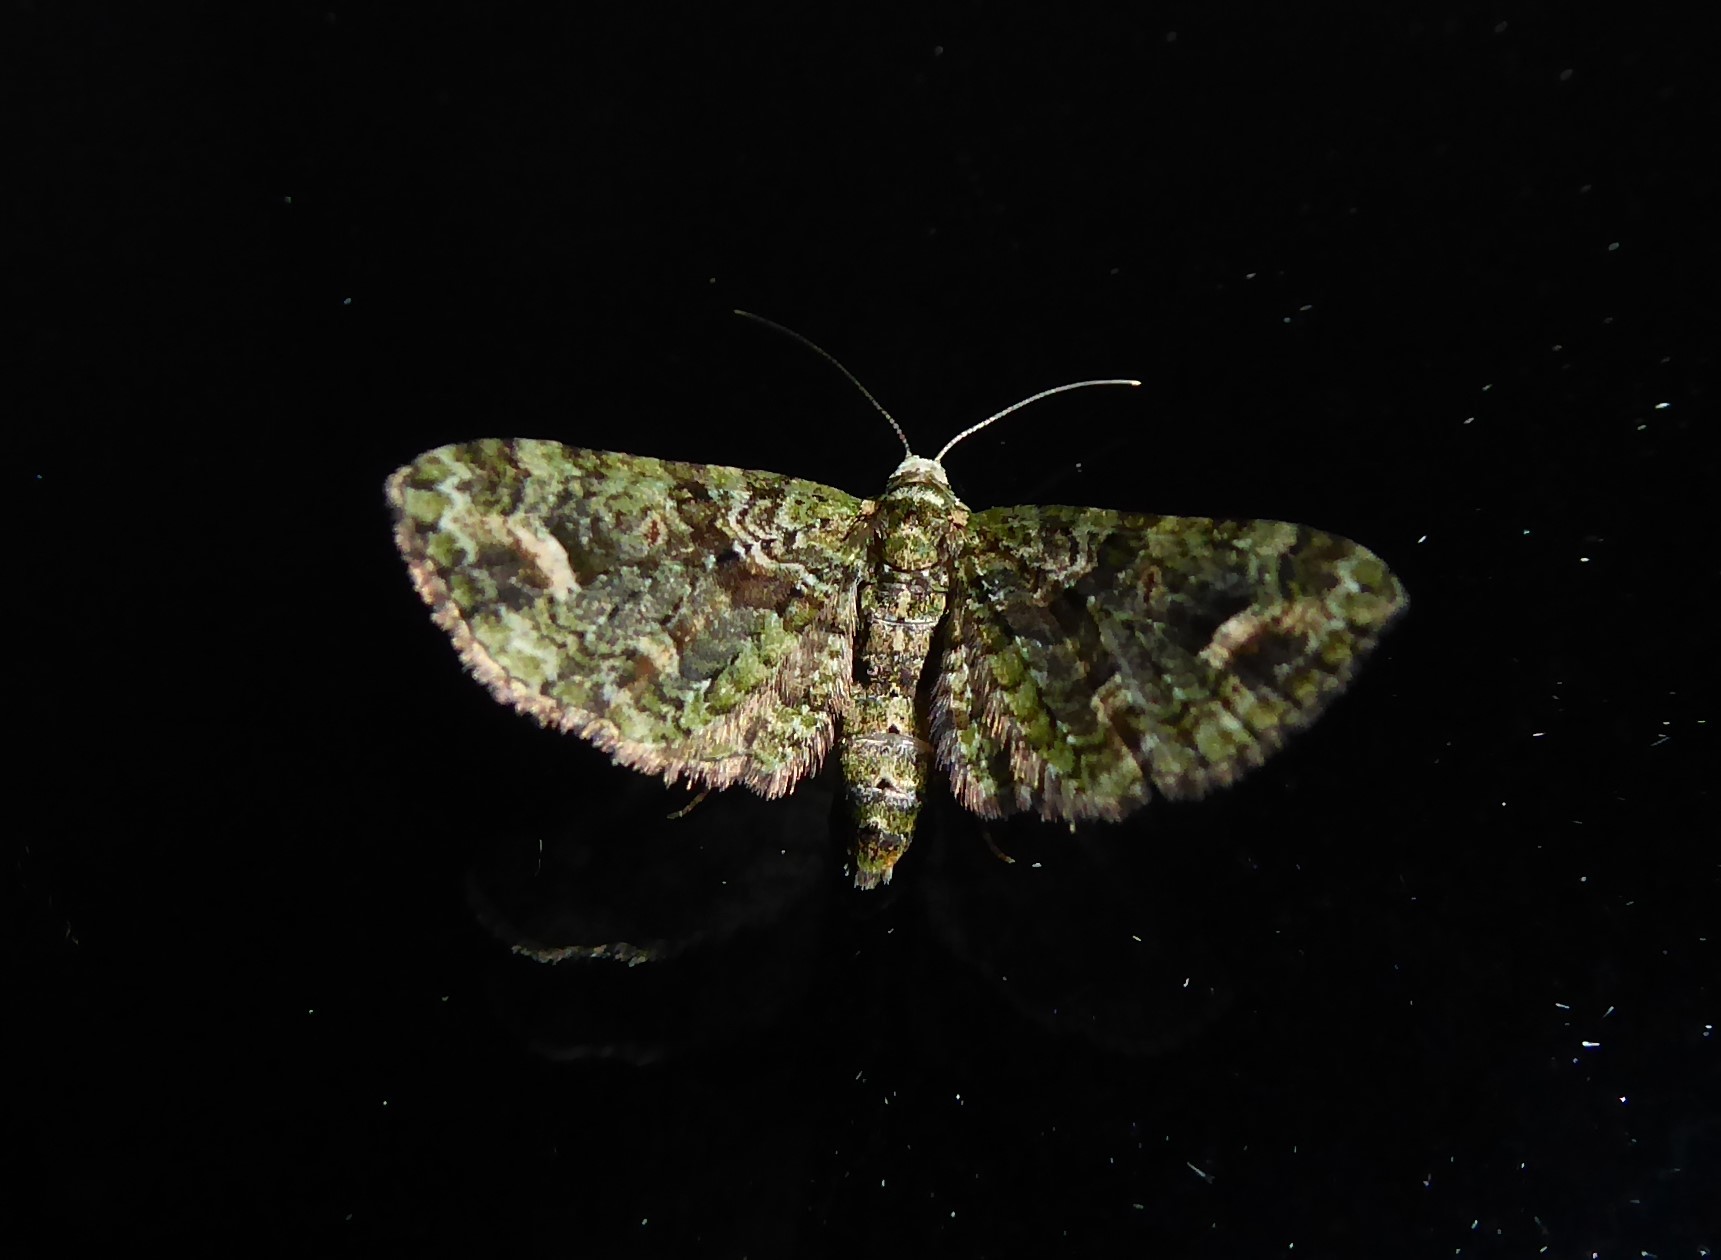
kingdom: Animalia
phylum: Arthropoda
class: Insecta
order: Lepidoptera
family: Geometridae
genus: Idaea
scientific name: Idaea mutanda
